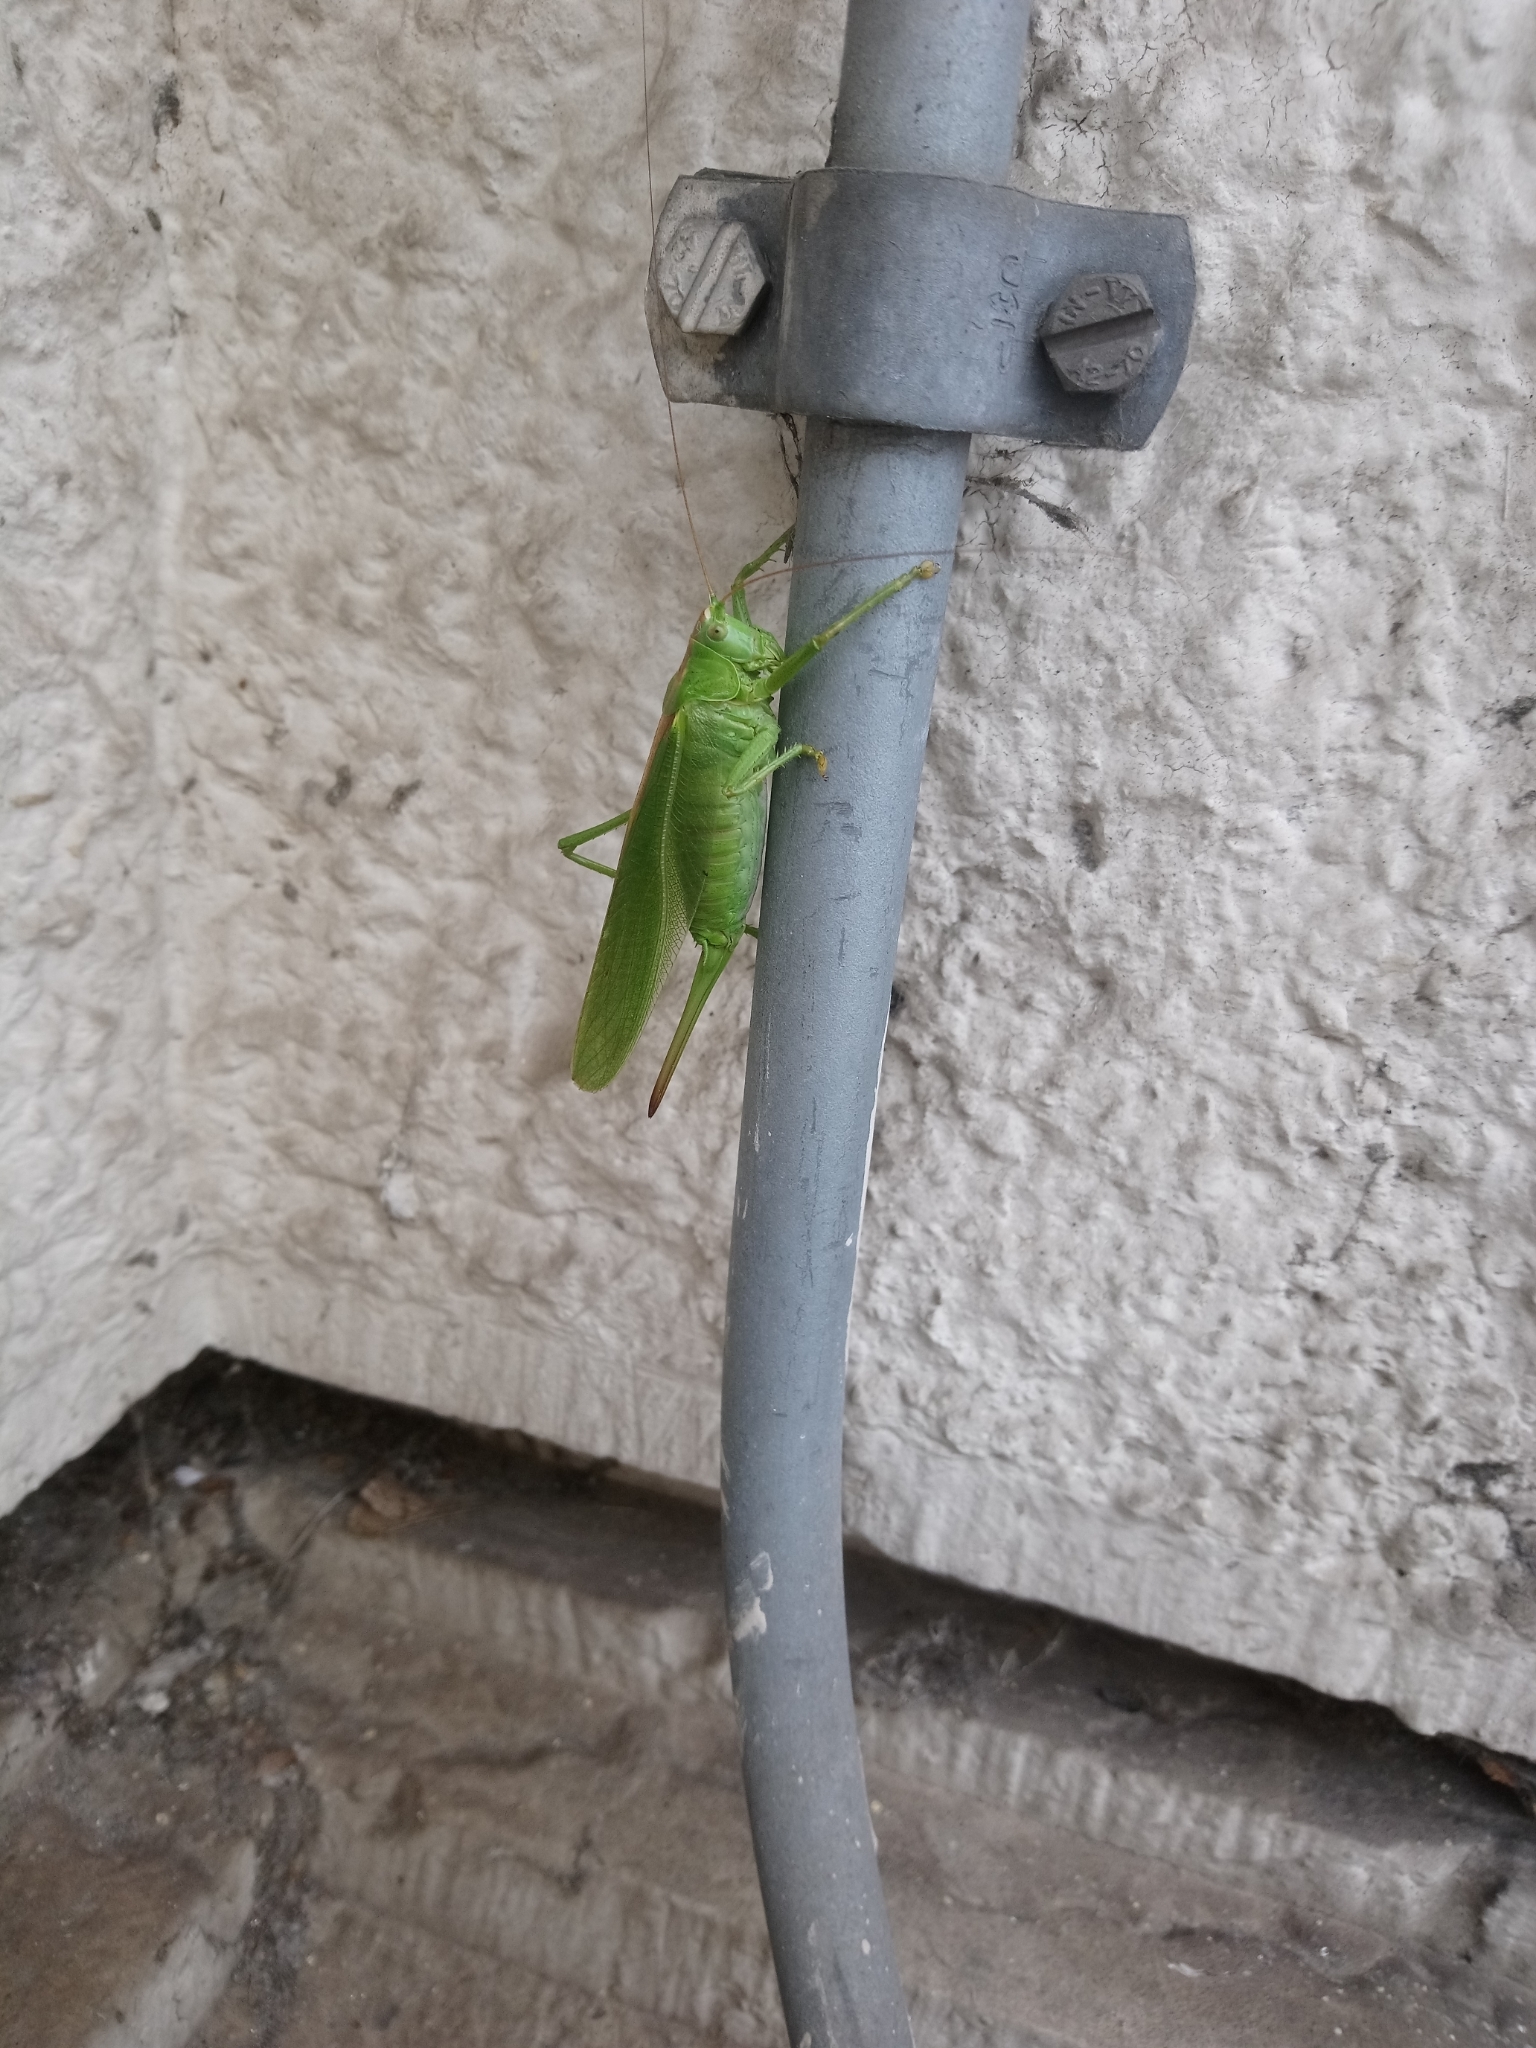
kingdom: Animalia
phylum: Arthropoda
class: Insecta
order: Orthoptera
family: Tettigoniidae
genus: Tettigonia
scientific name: Tettigonia viridissima
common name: Great green bush-cricket
